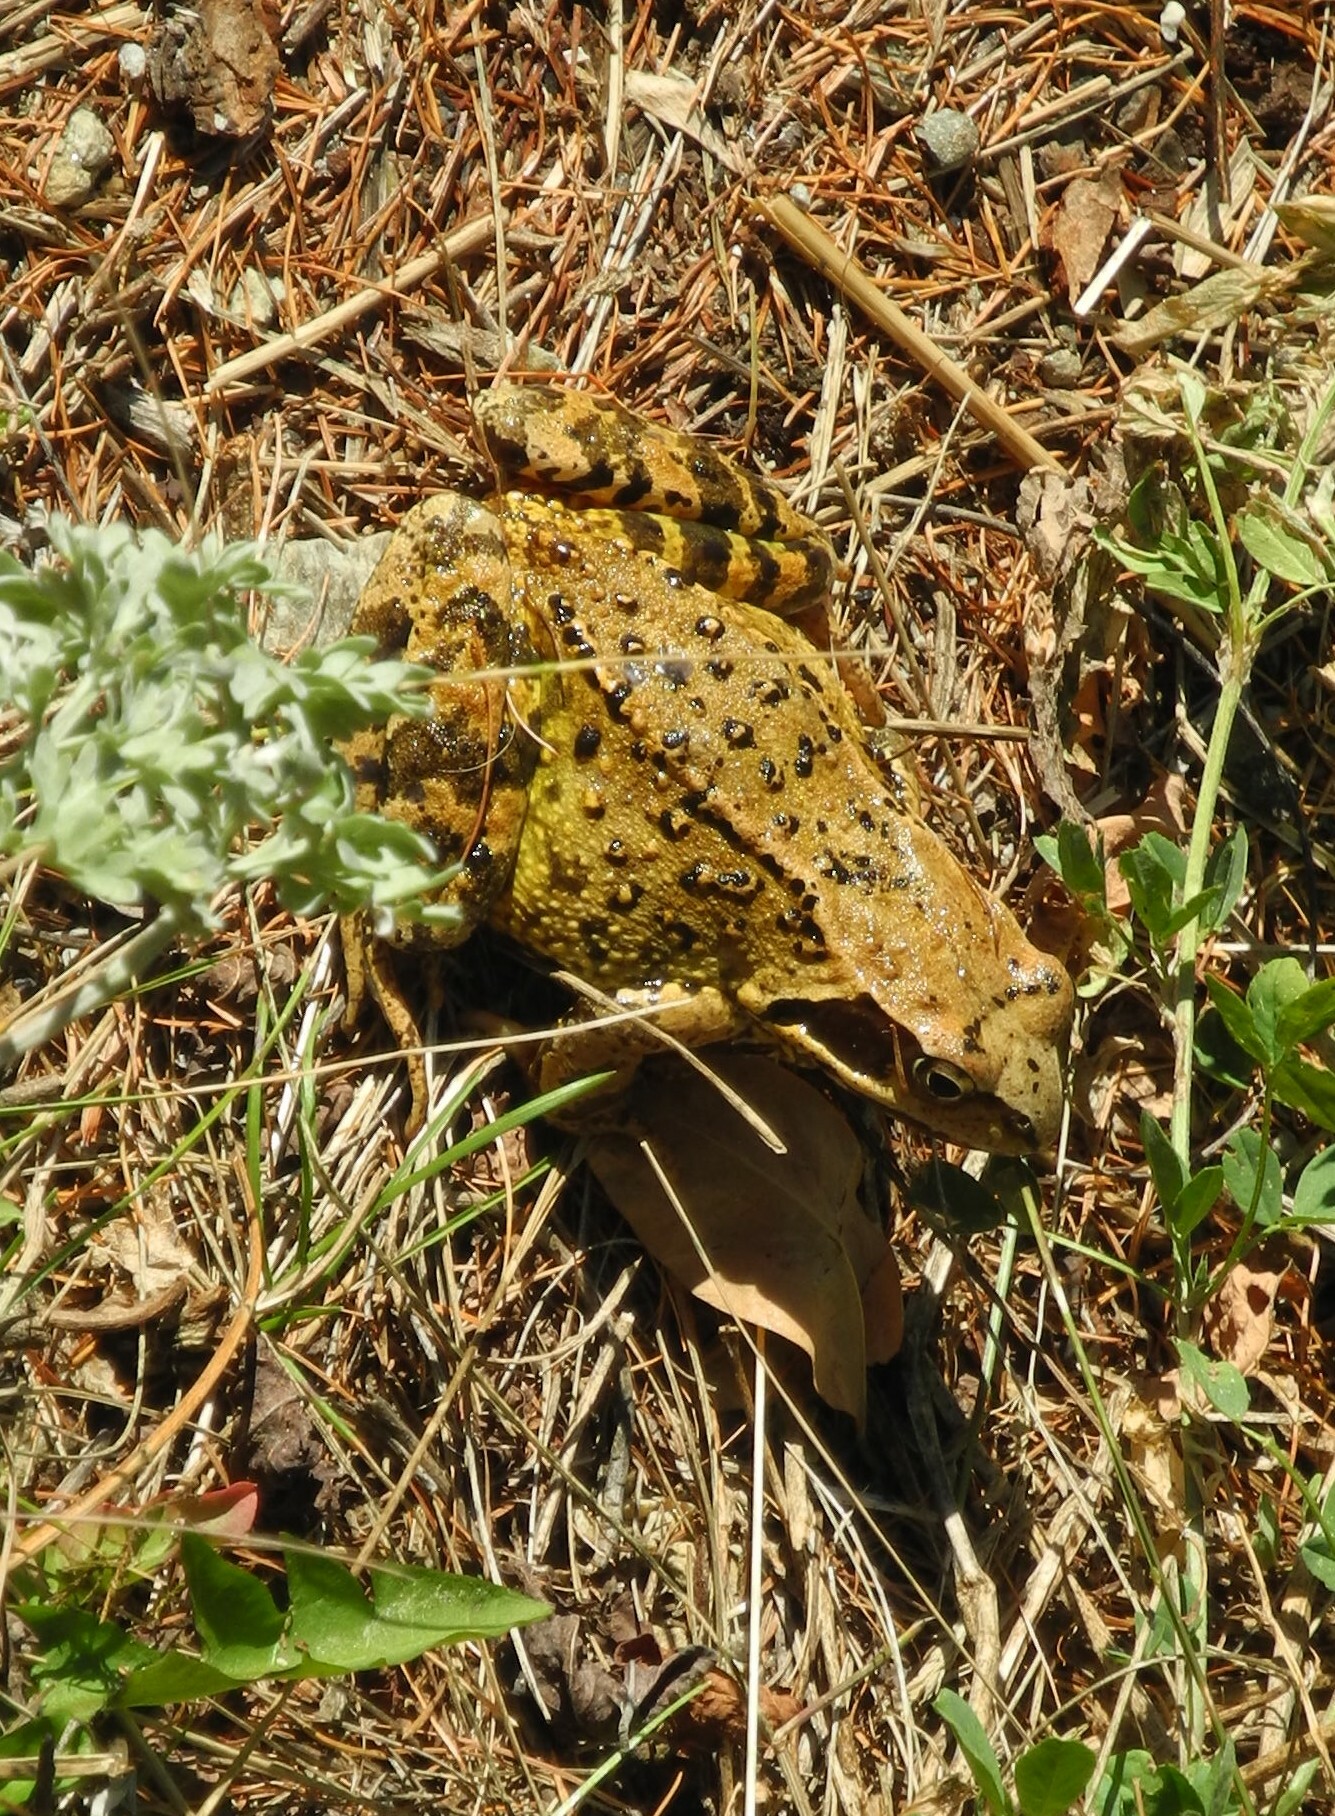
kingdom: Animalia
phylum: Chordata
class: Amphibia
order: Anura
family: Ranidae
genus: Rana
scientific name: Rana temporaria
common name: Common frog
